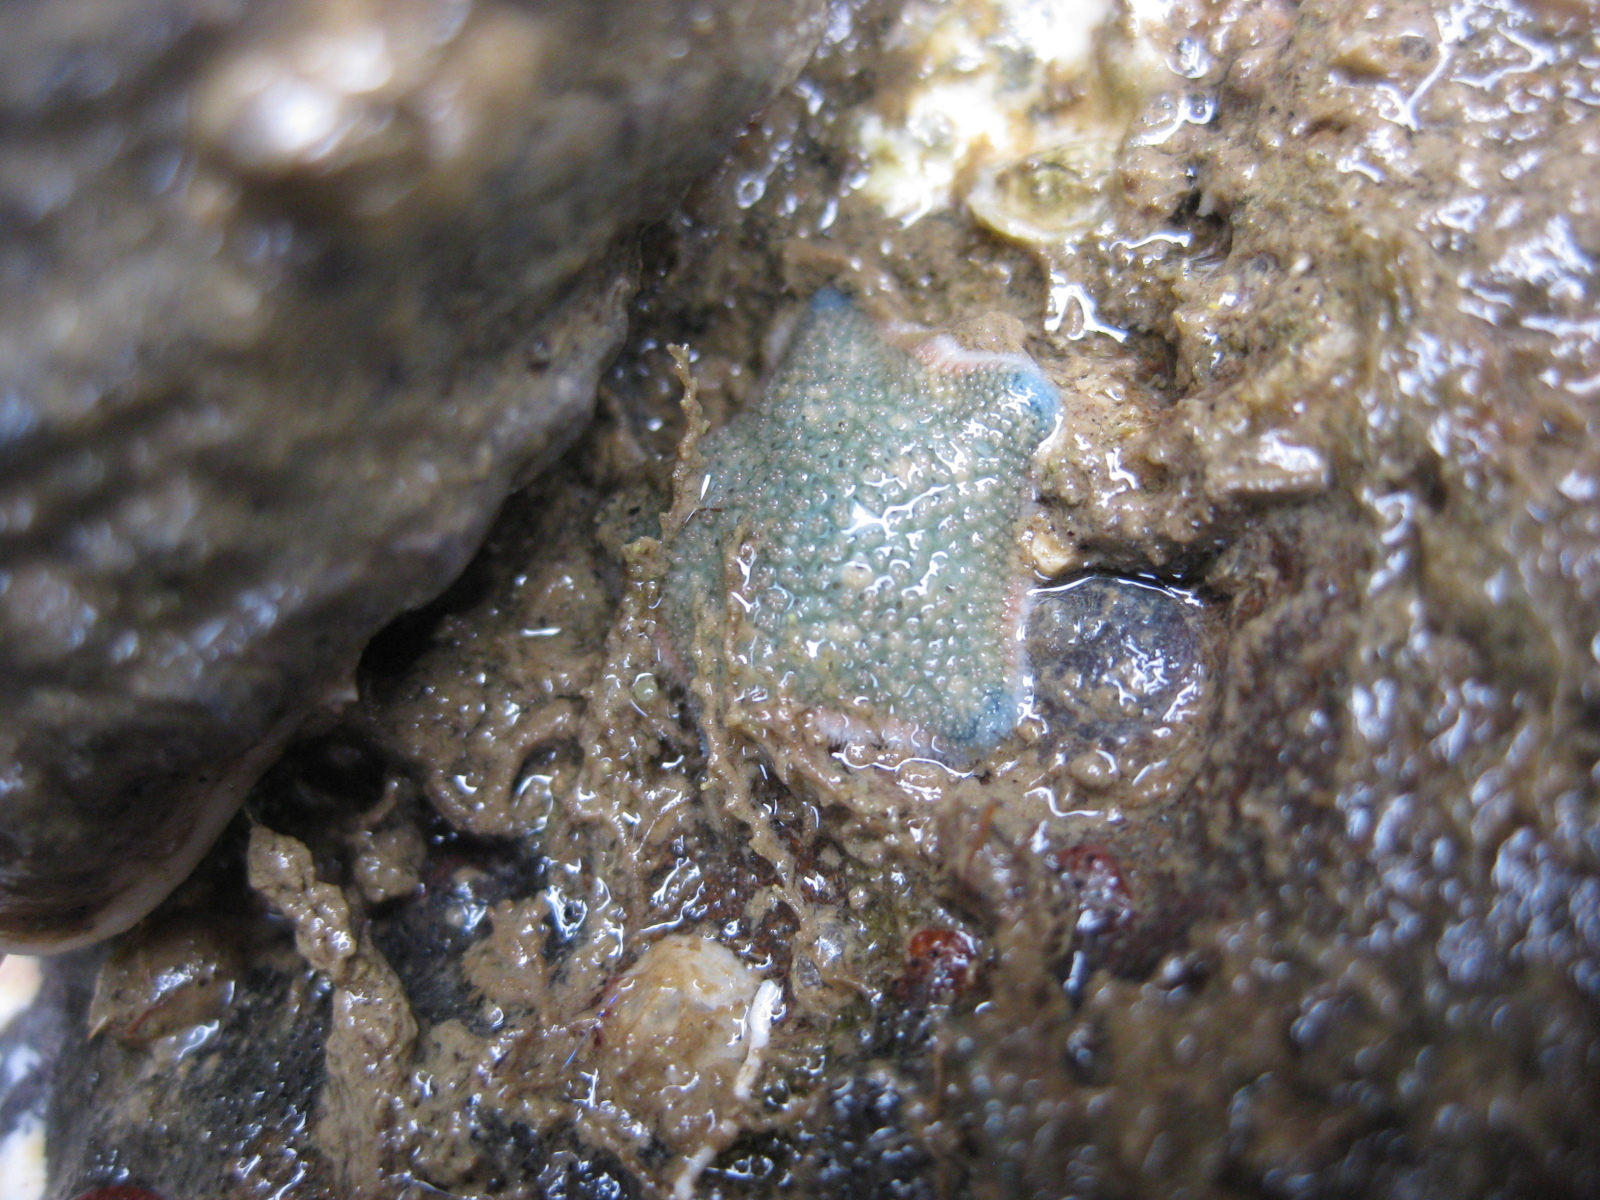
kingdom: Animalia
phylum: Echinodermata
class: Asteroidea
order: Valvatida
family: Asterinidae
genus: Patiriella
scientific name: Patiriella regularis
